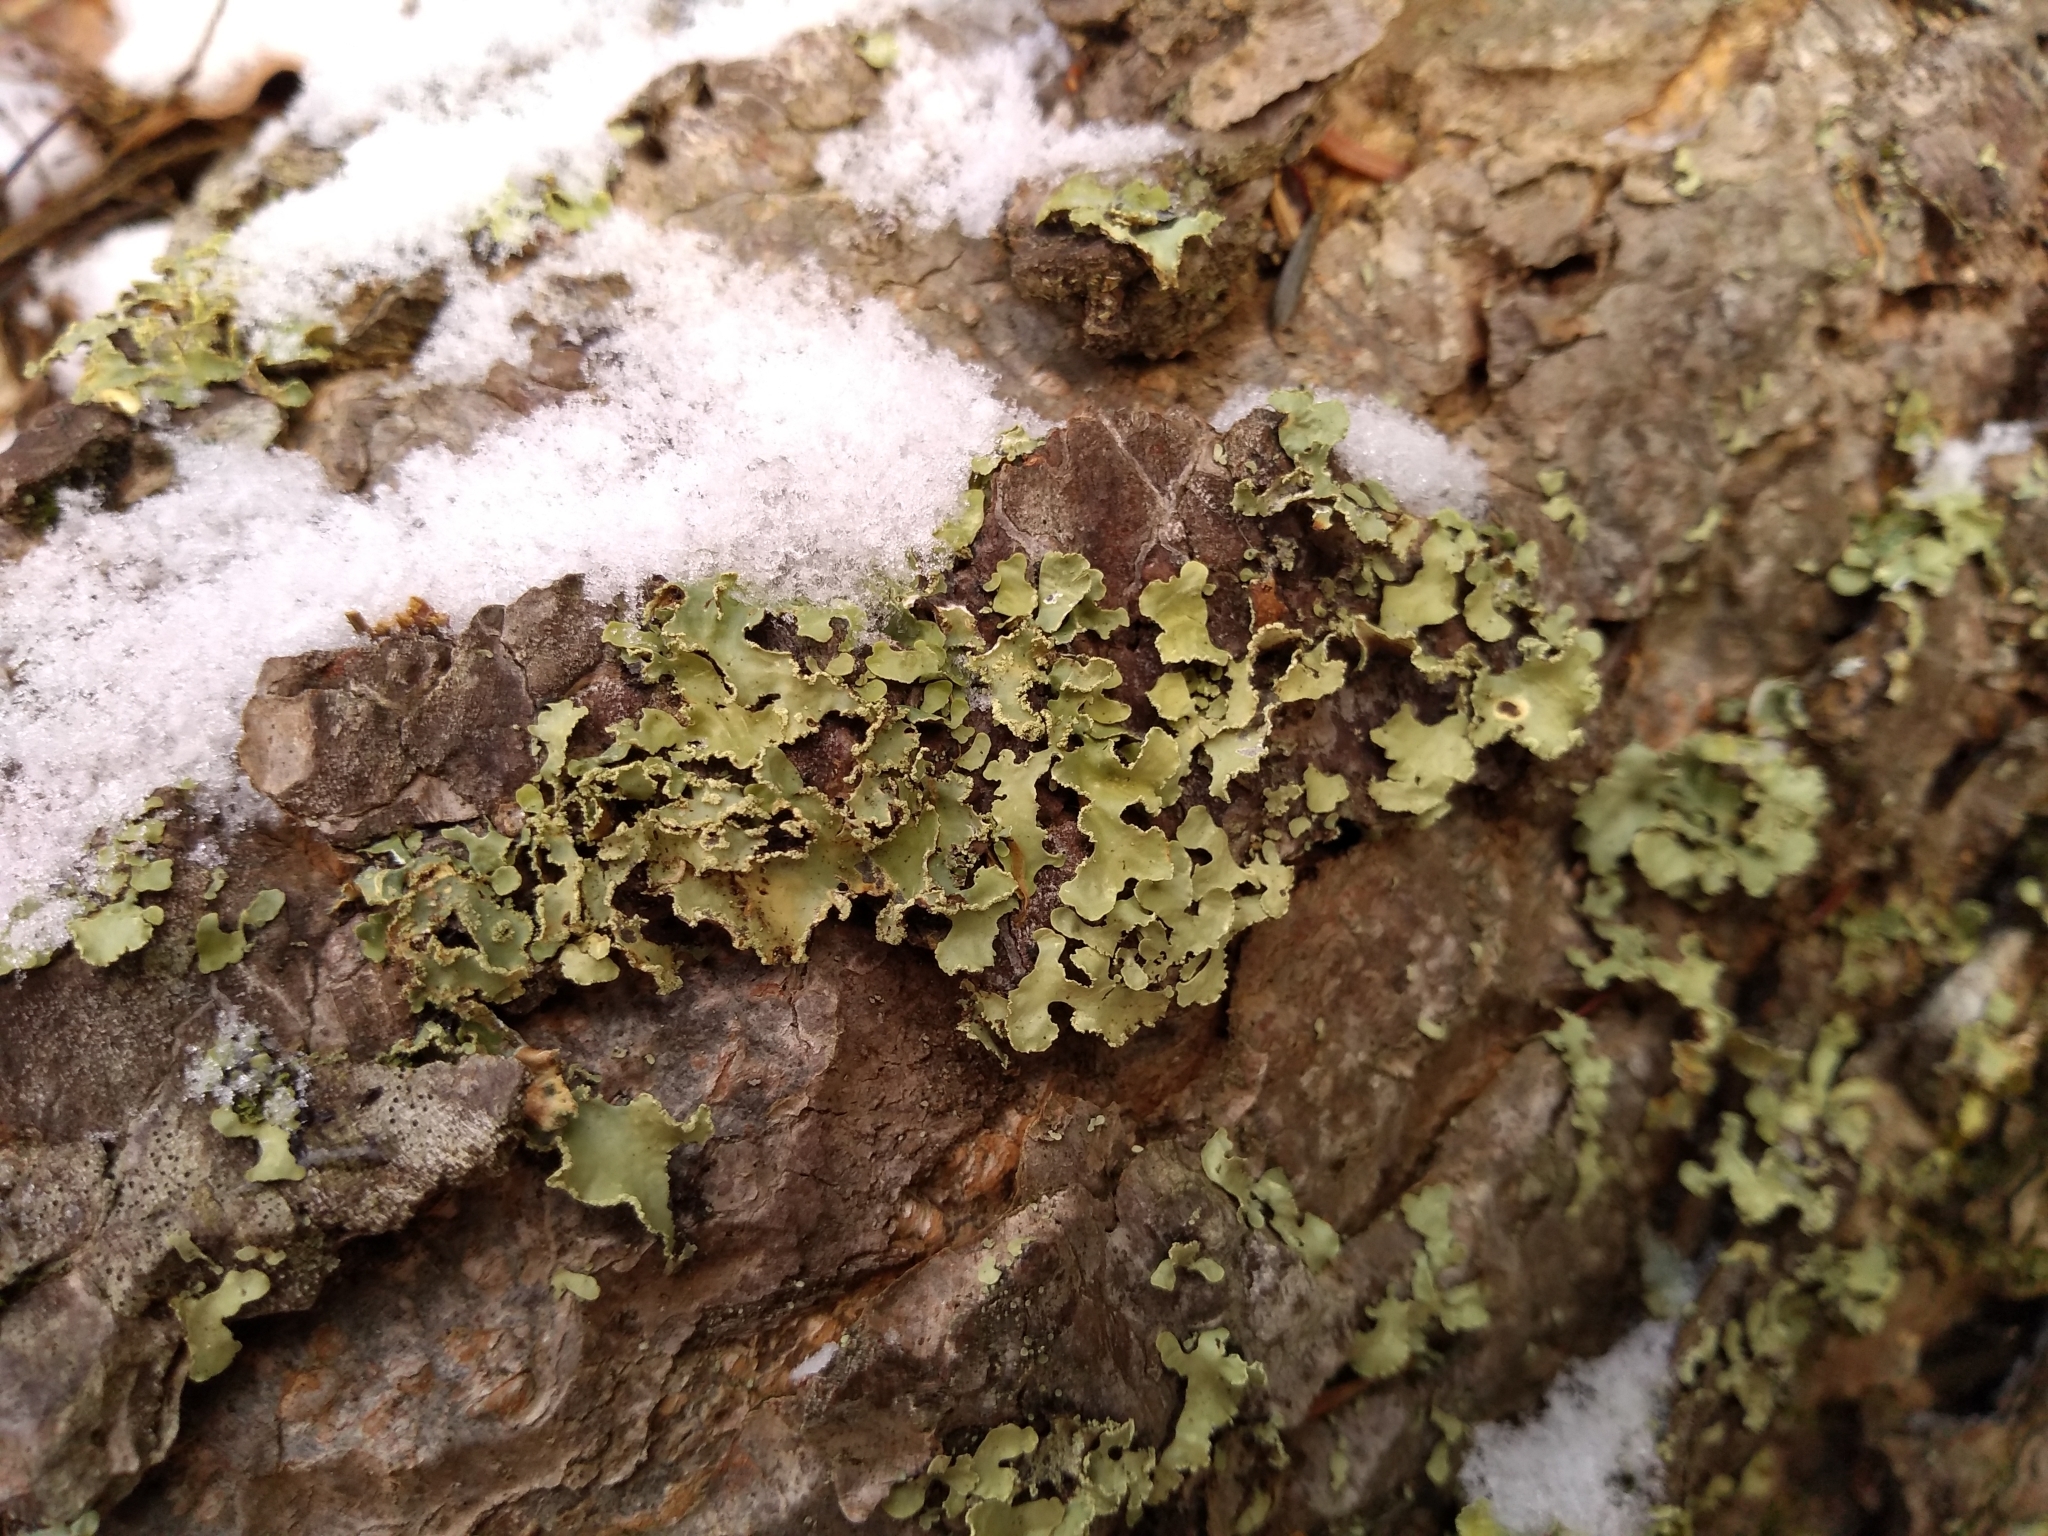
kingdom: Fungi
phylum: Ascomycota
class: Lecanoromycetes
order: Lecanorales
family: Parmeliaceae
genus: Usnocetraria
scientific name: Usnocetraria oakesiana
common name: Yellow ribbon lichen
